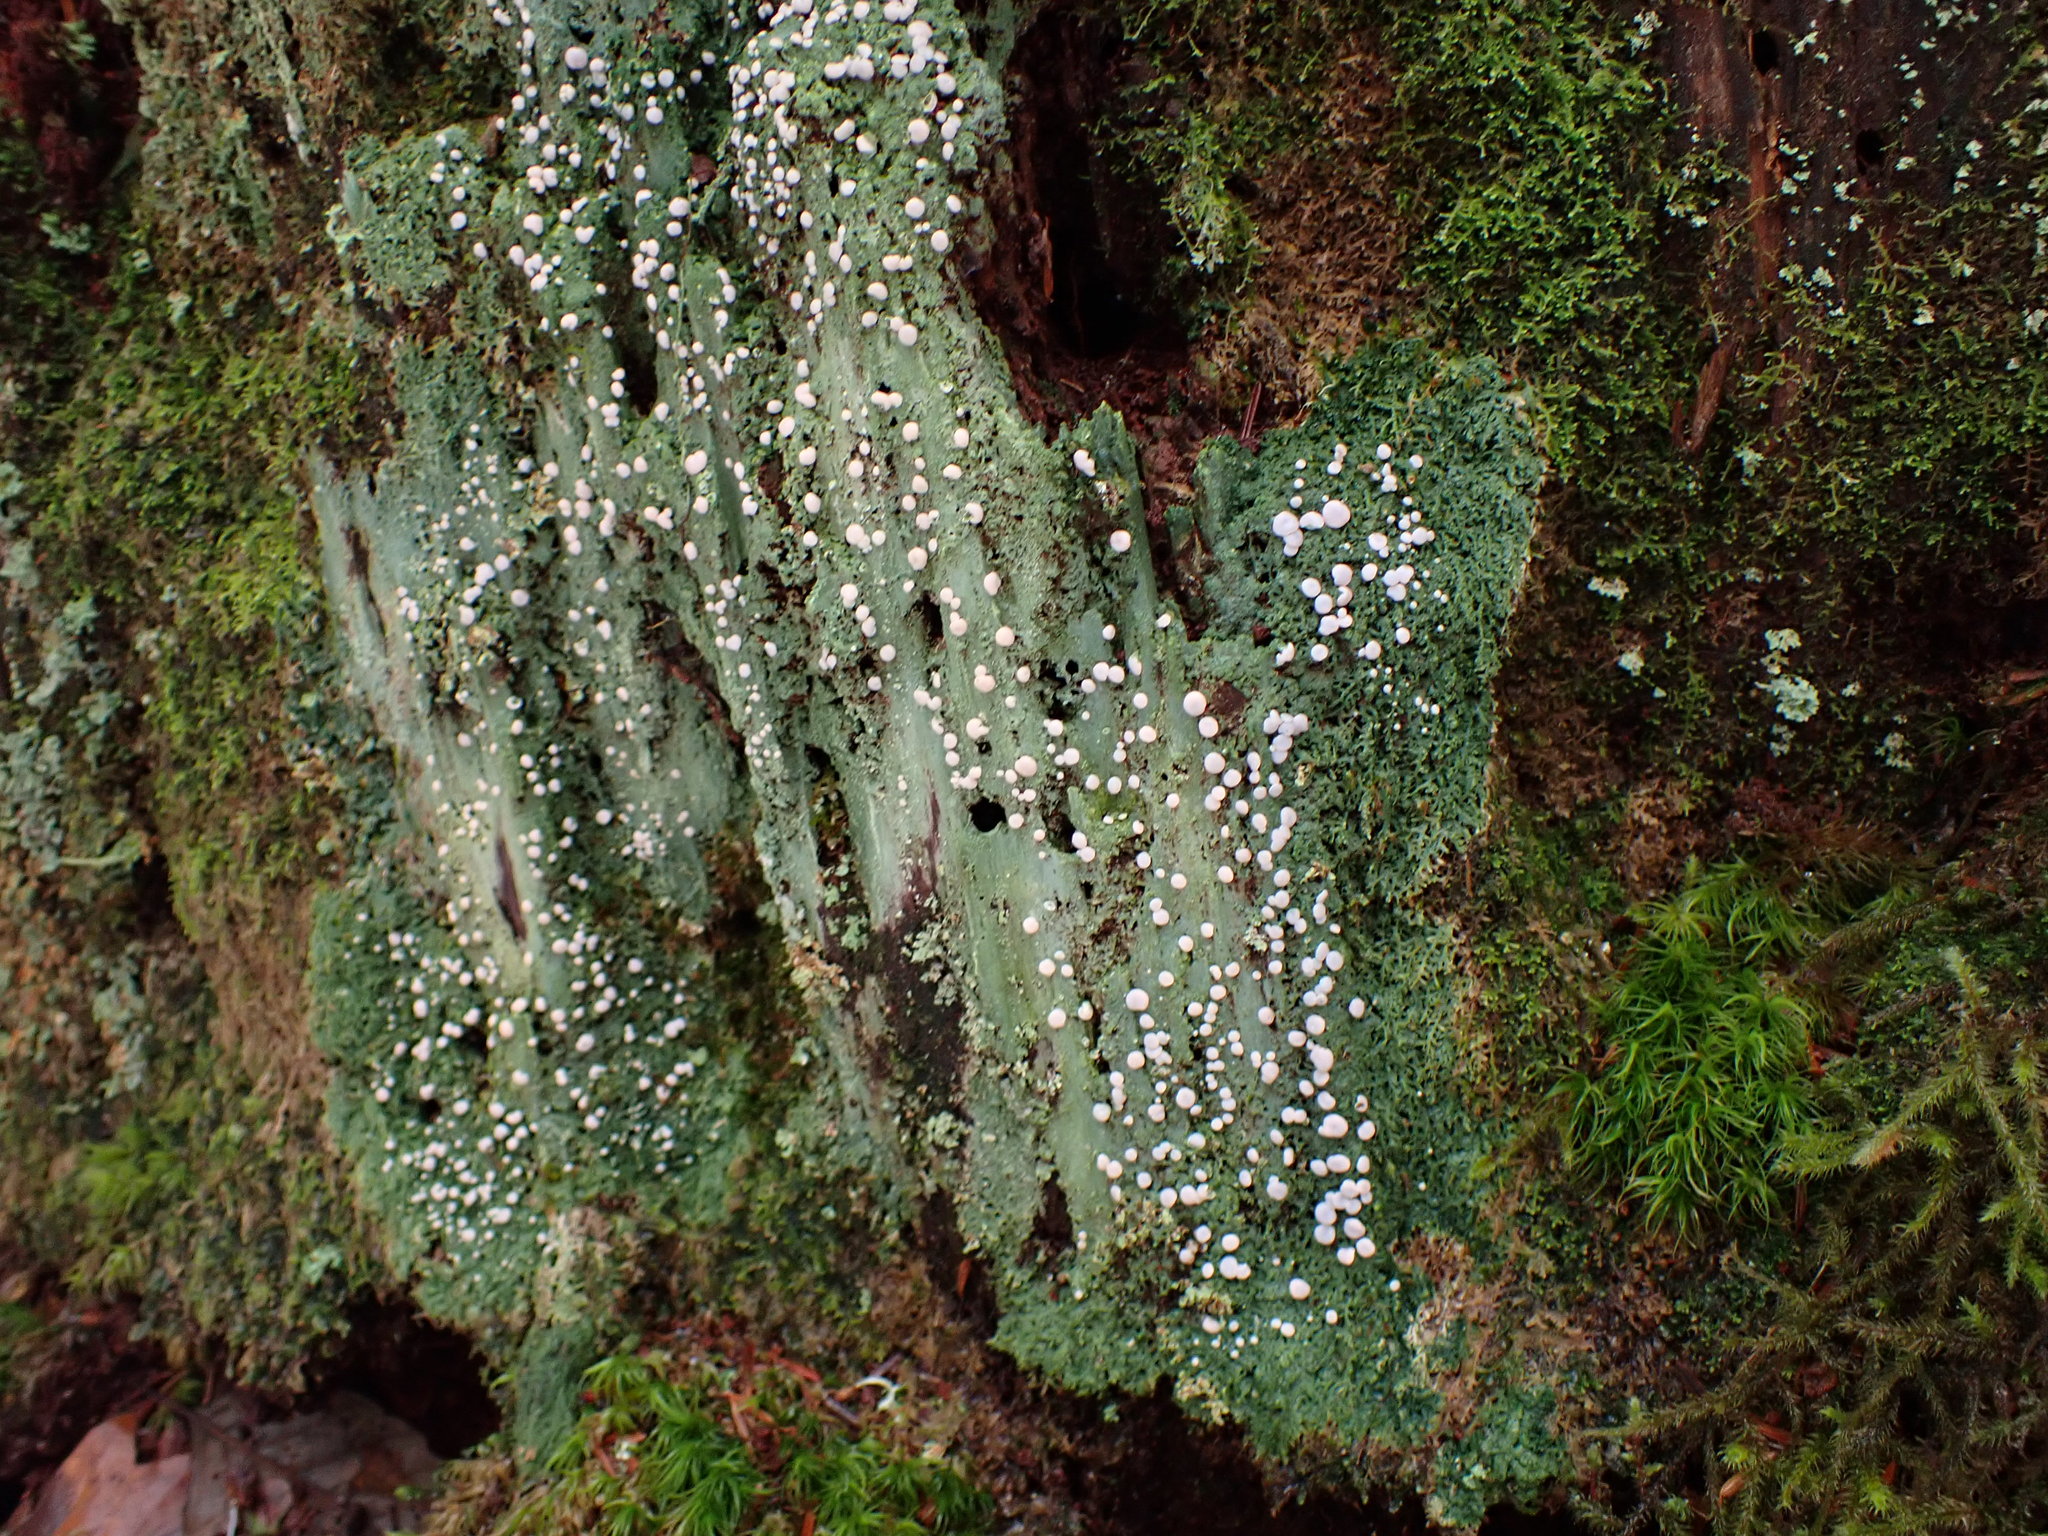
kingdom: Fungi
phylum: Ascomycota
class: Lecanoromycetes
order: Pertusariales
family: Icmadophilaceae
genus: Icmadophila
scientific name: Icmadophila ericetorum
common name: Candy lichen
